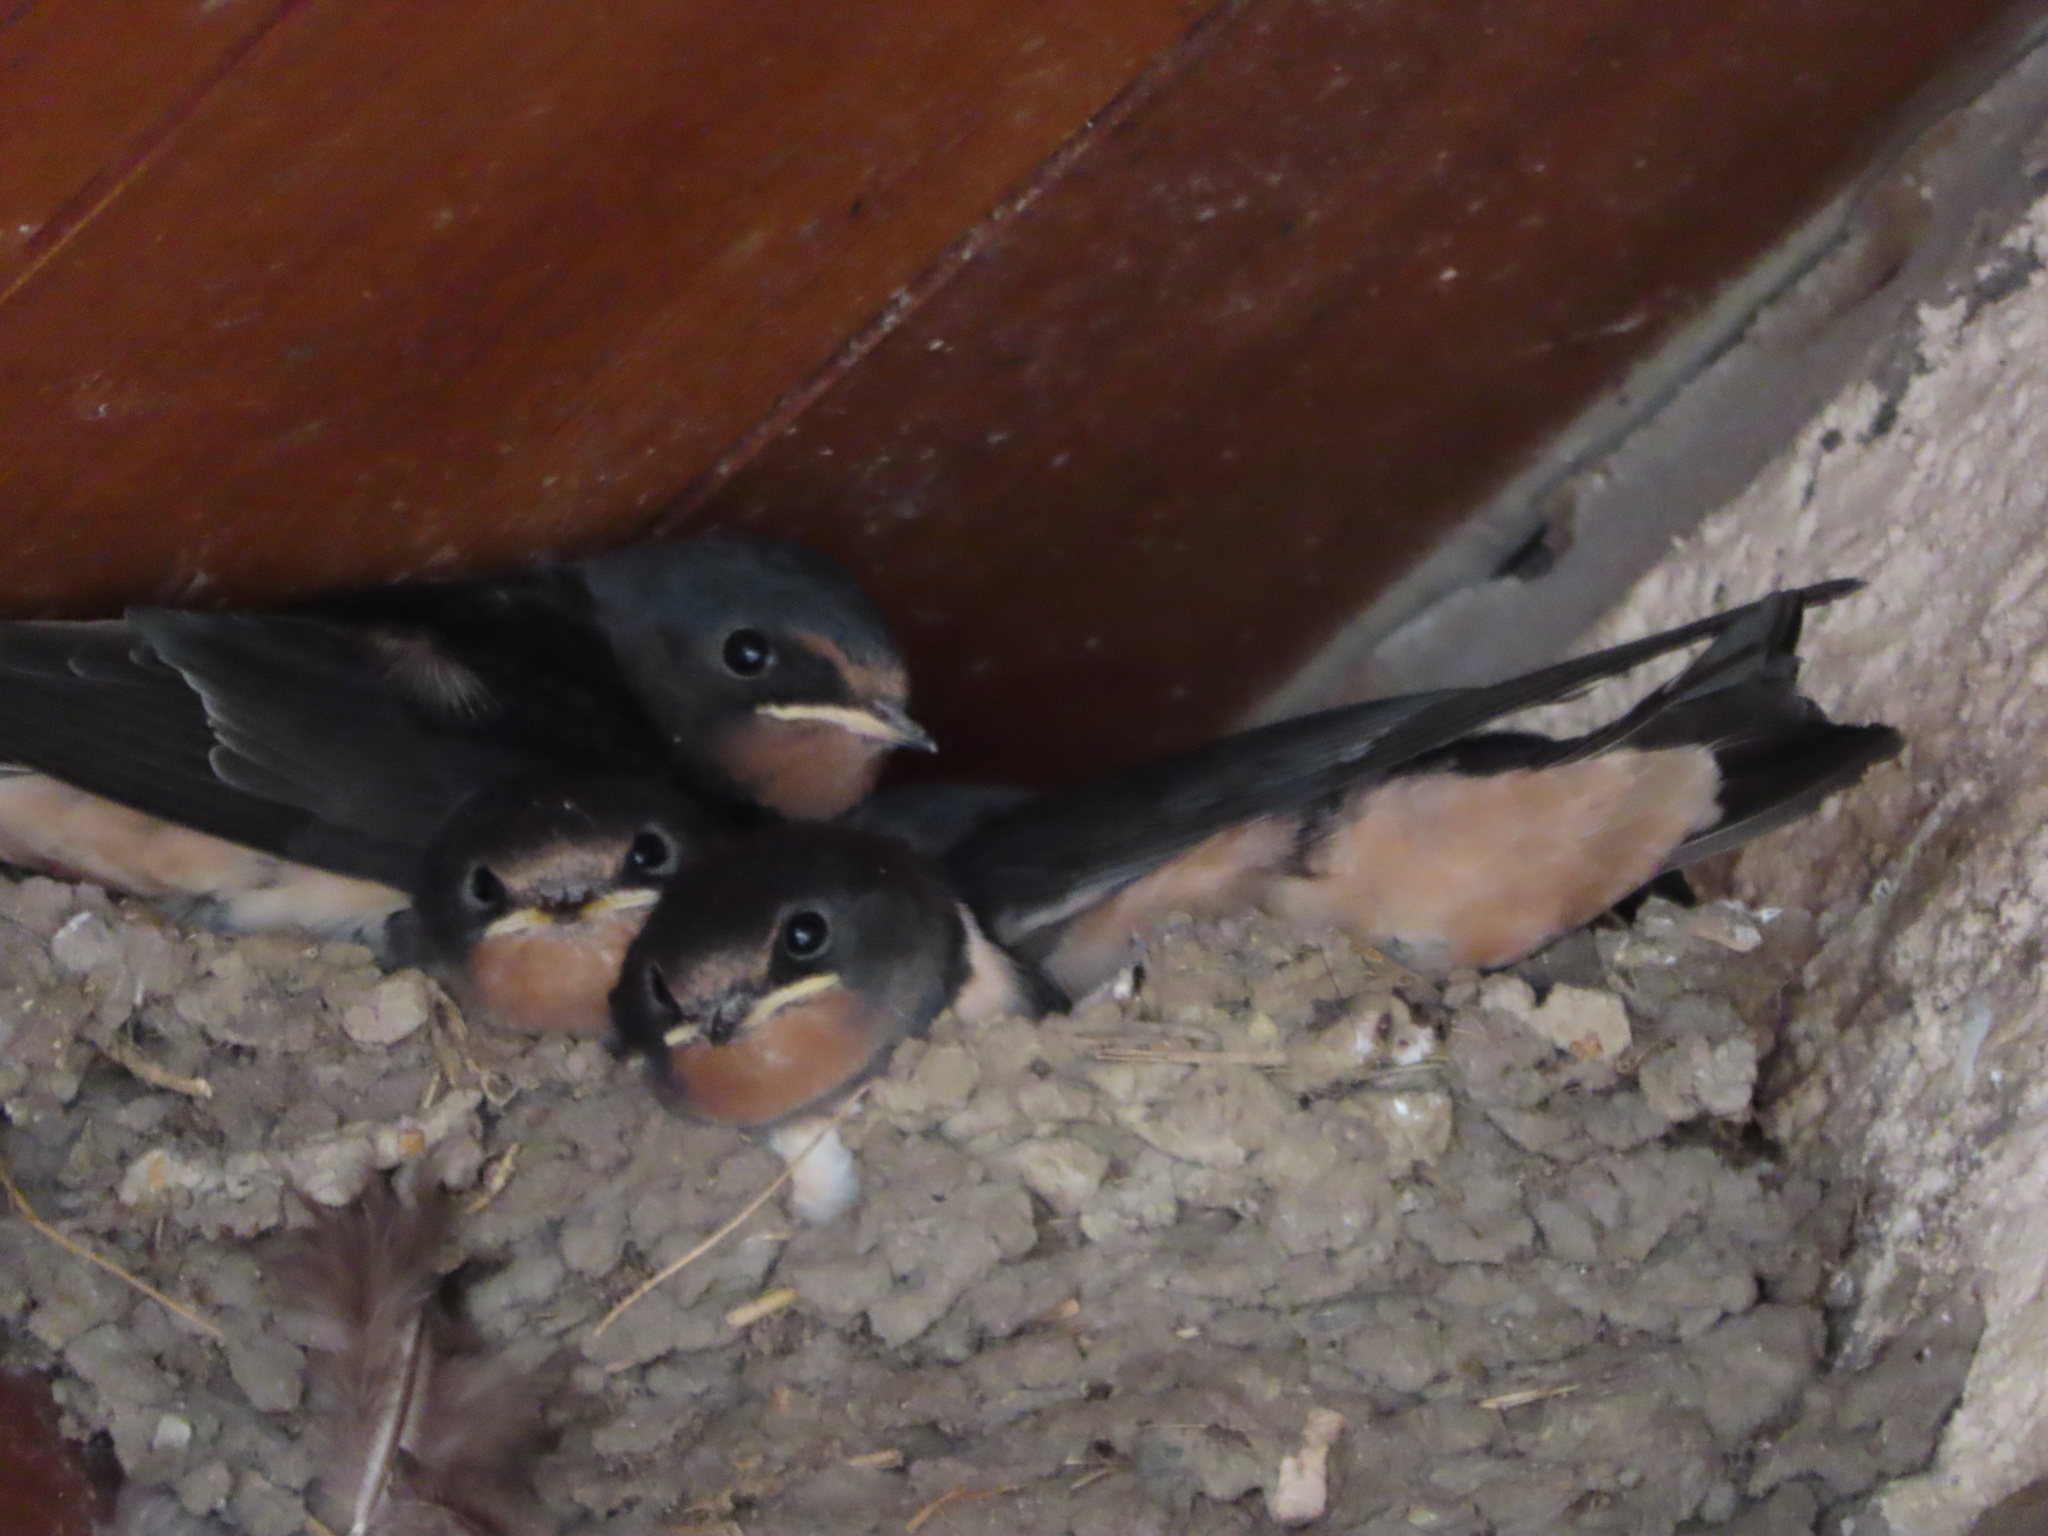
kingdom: Animalia
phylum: Chordata
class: Aves
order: Passeriformes
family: Hirundinidae
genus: Hirundo
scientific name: Hirundo rustica
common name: Barn swallow
